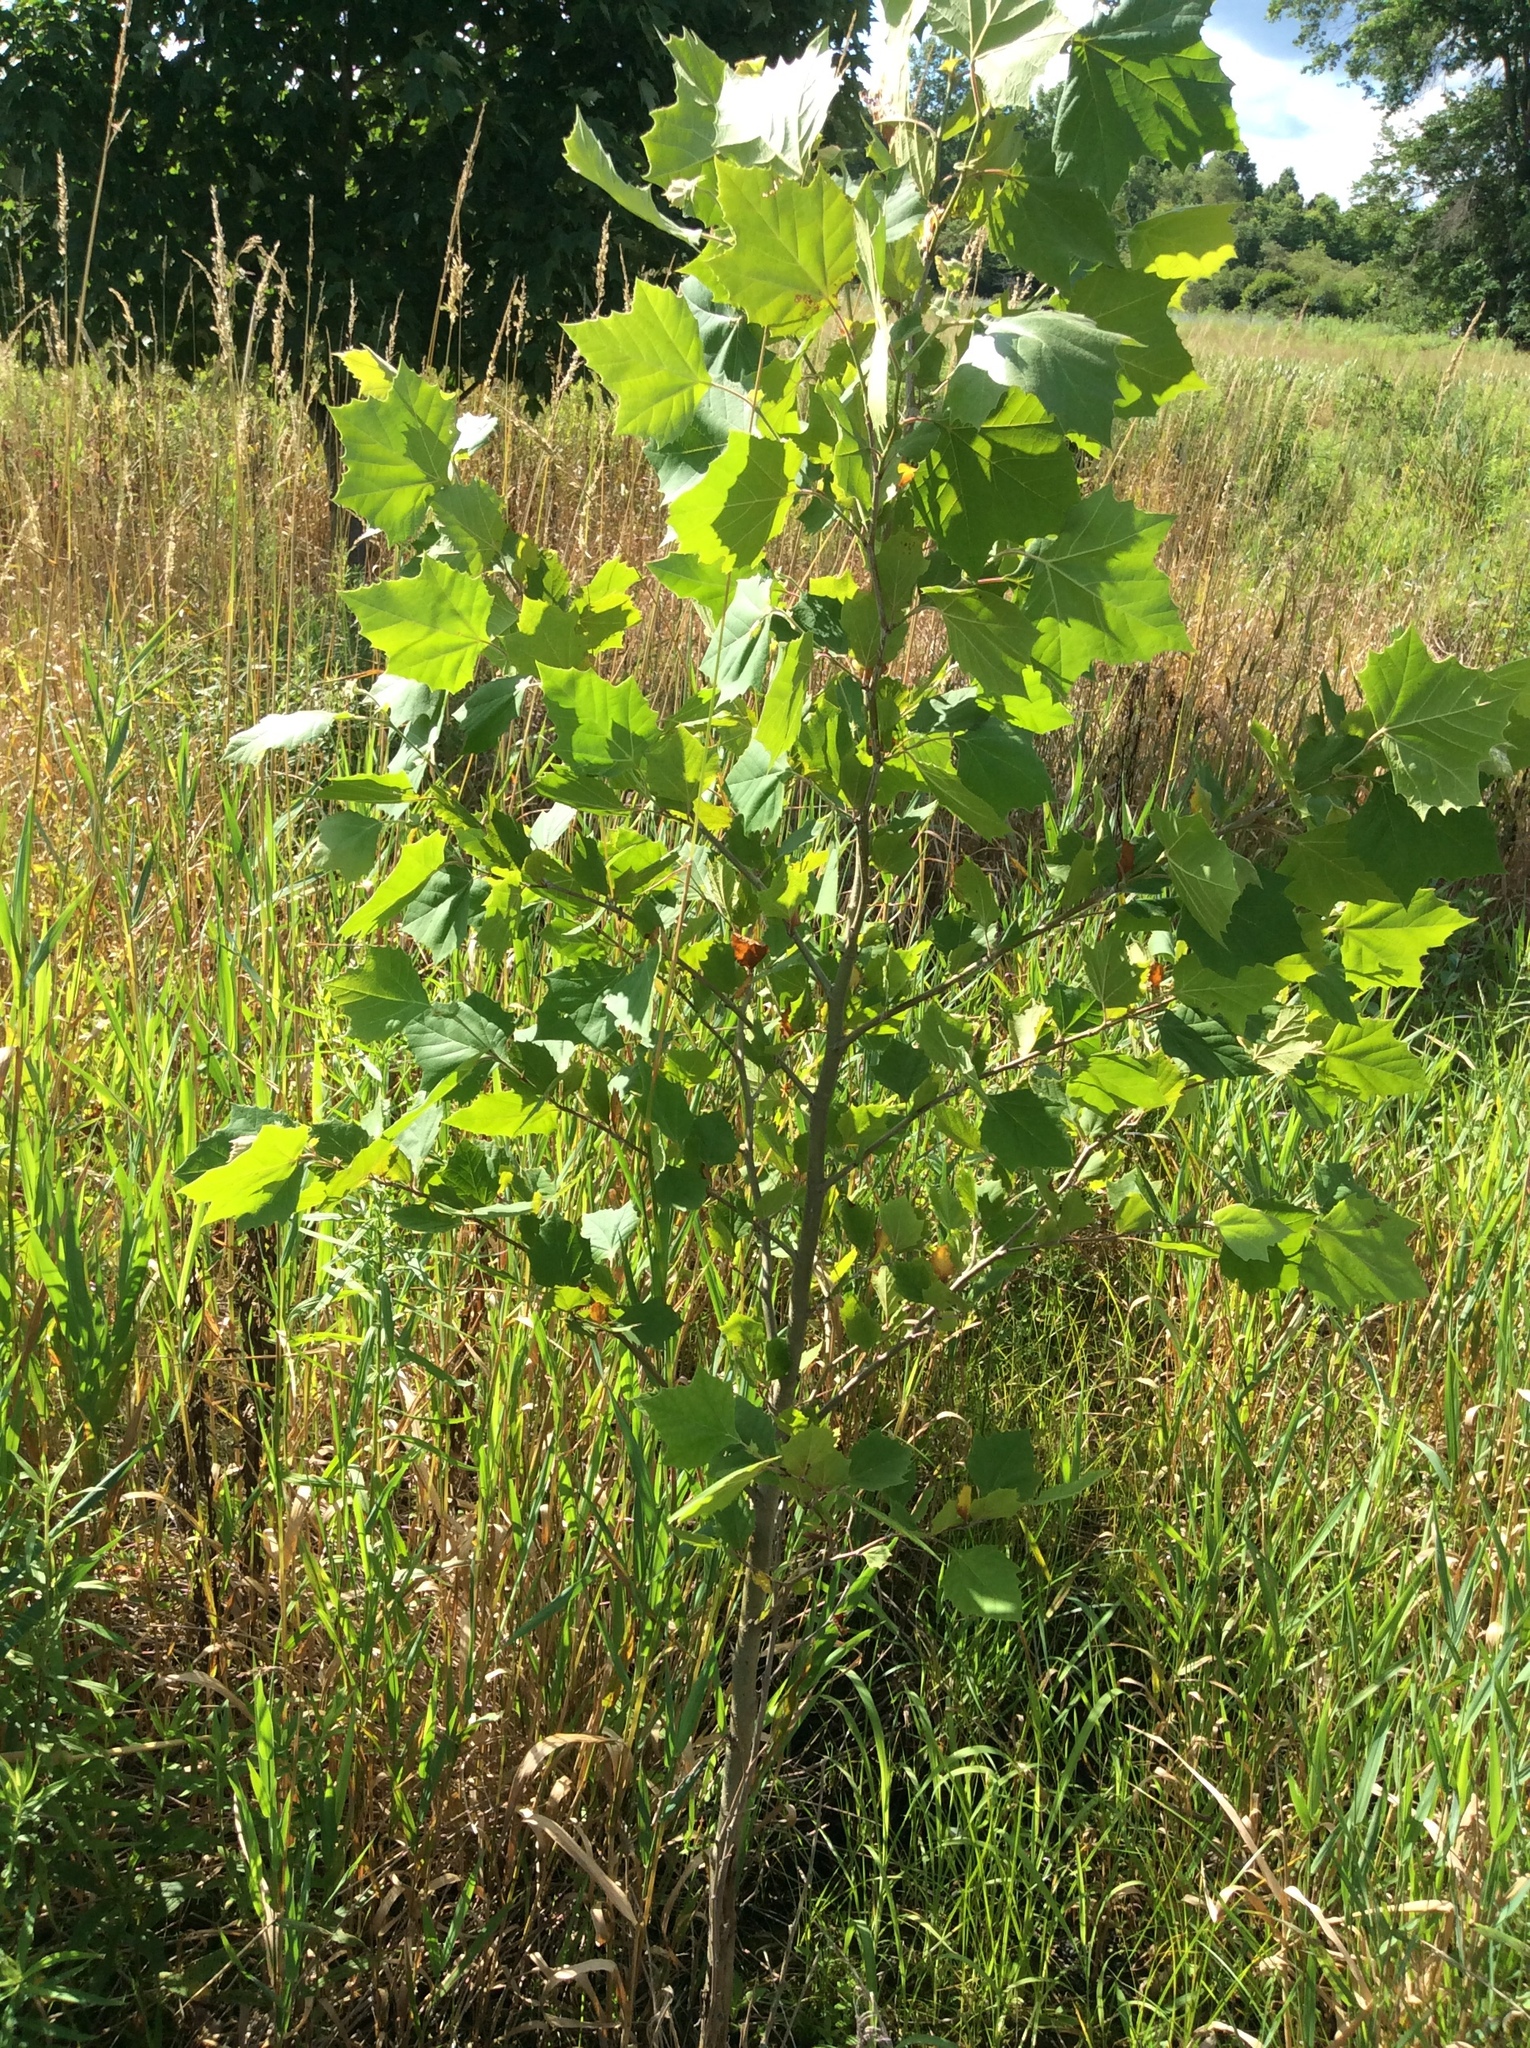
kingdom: Plantae
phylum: Tracheophyta
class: Magnoliopsida
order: Proteales
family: Platanaceae
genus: Platanus
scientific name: Platanus occidentalis
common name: American sycamore
